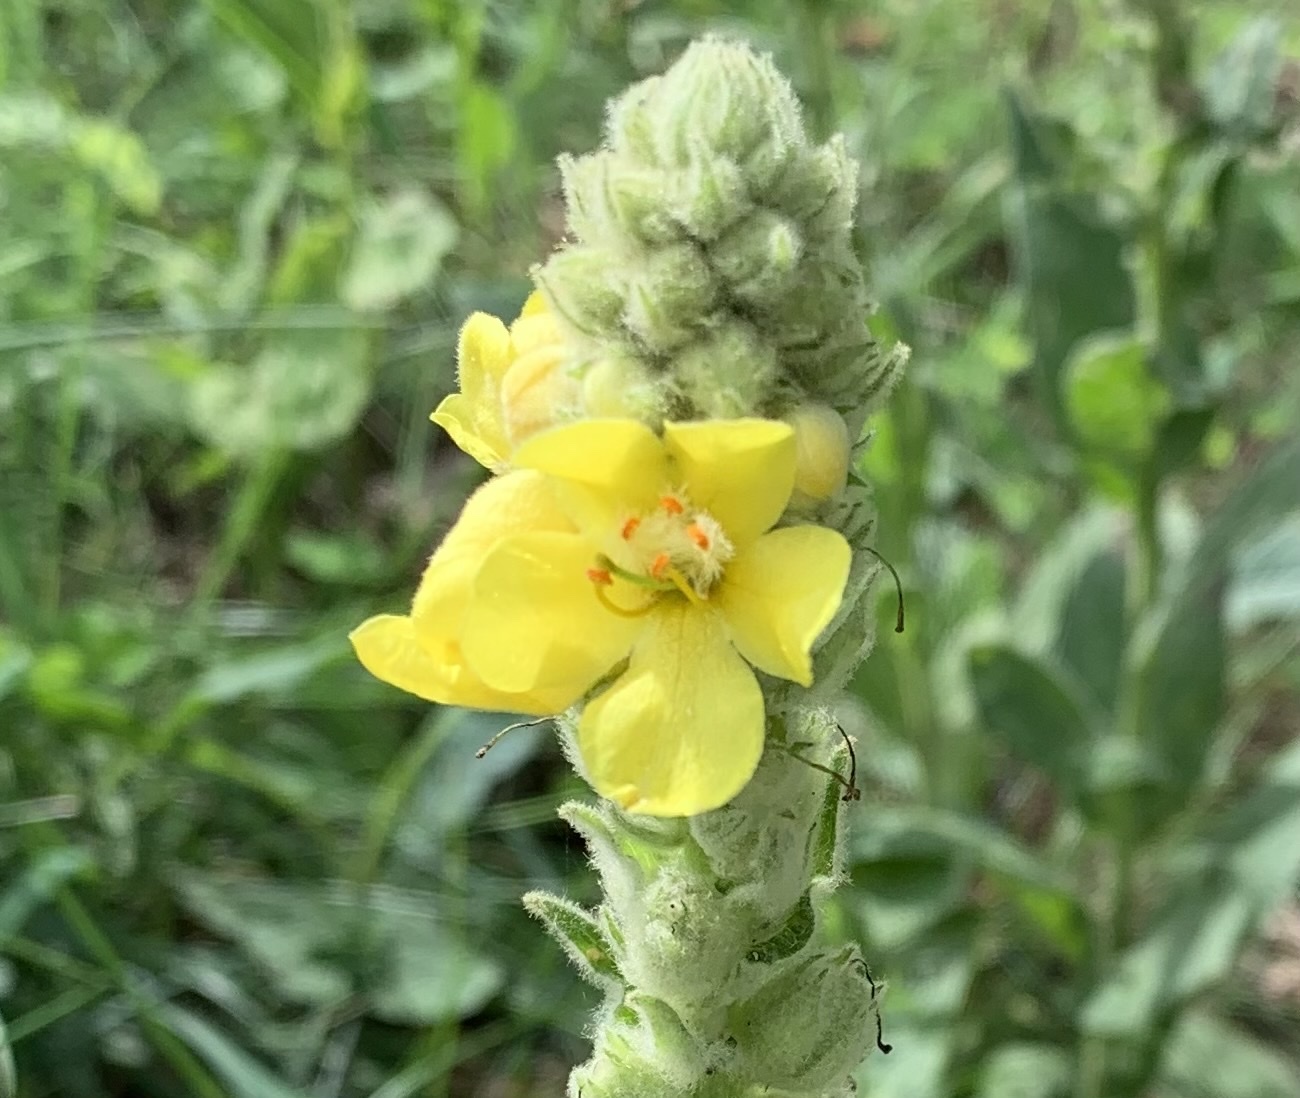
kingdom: Plantae
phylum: Tracheophyta
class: Magnoliopsida
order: Lamiales
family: Scrophulariaceae
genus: Verbascum
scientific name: Verbascum thapsus
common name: Common mullein
